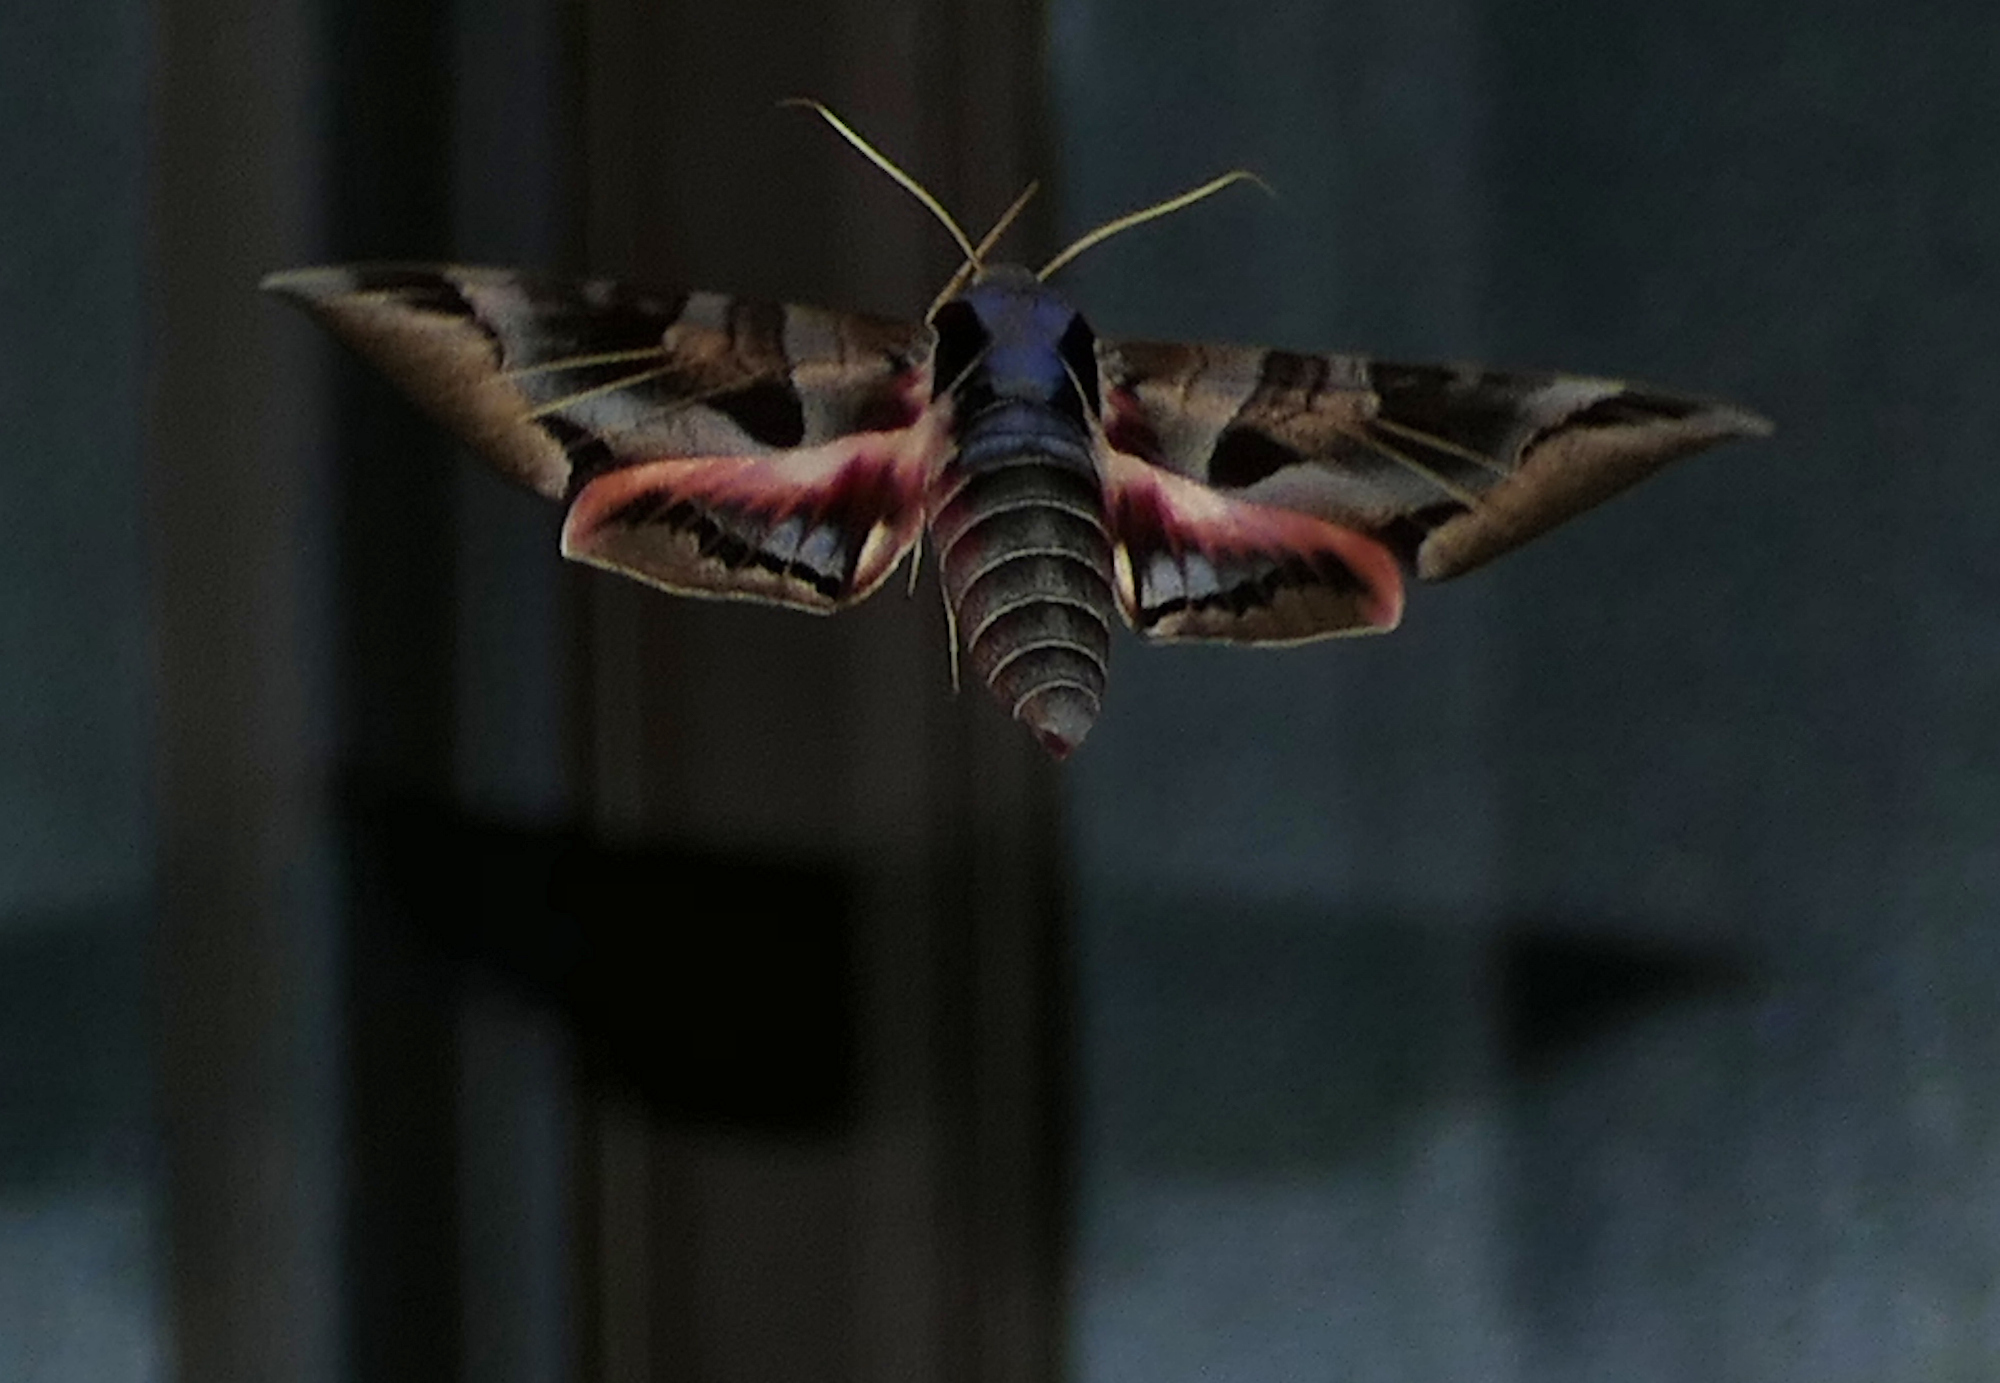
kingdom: Animalia
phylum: Arthropoda
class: Insecta
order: Lepidoptera
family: Sphingidae
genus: Eumorpha
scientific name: Eumorpha typhon
